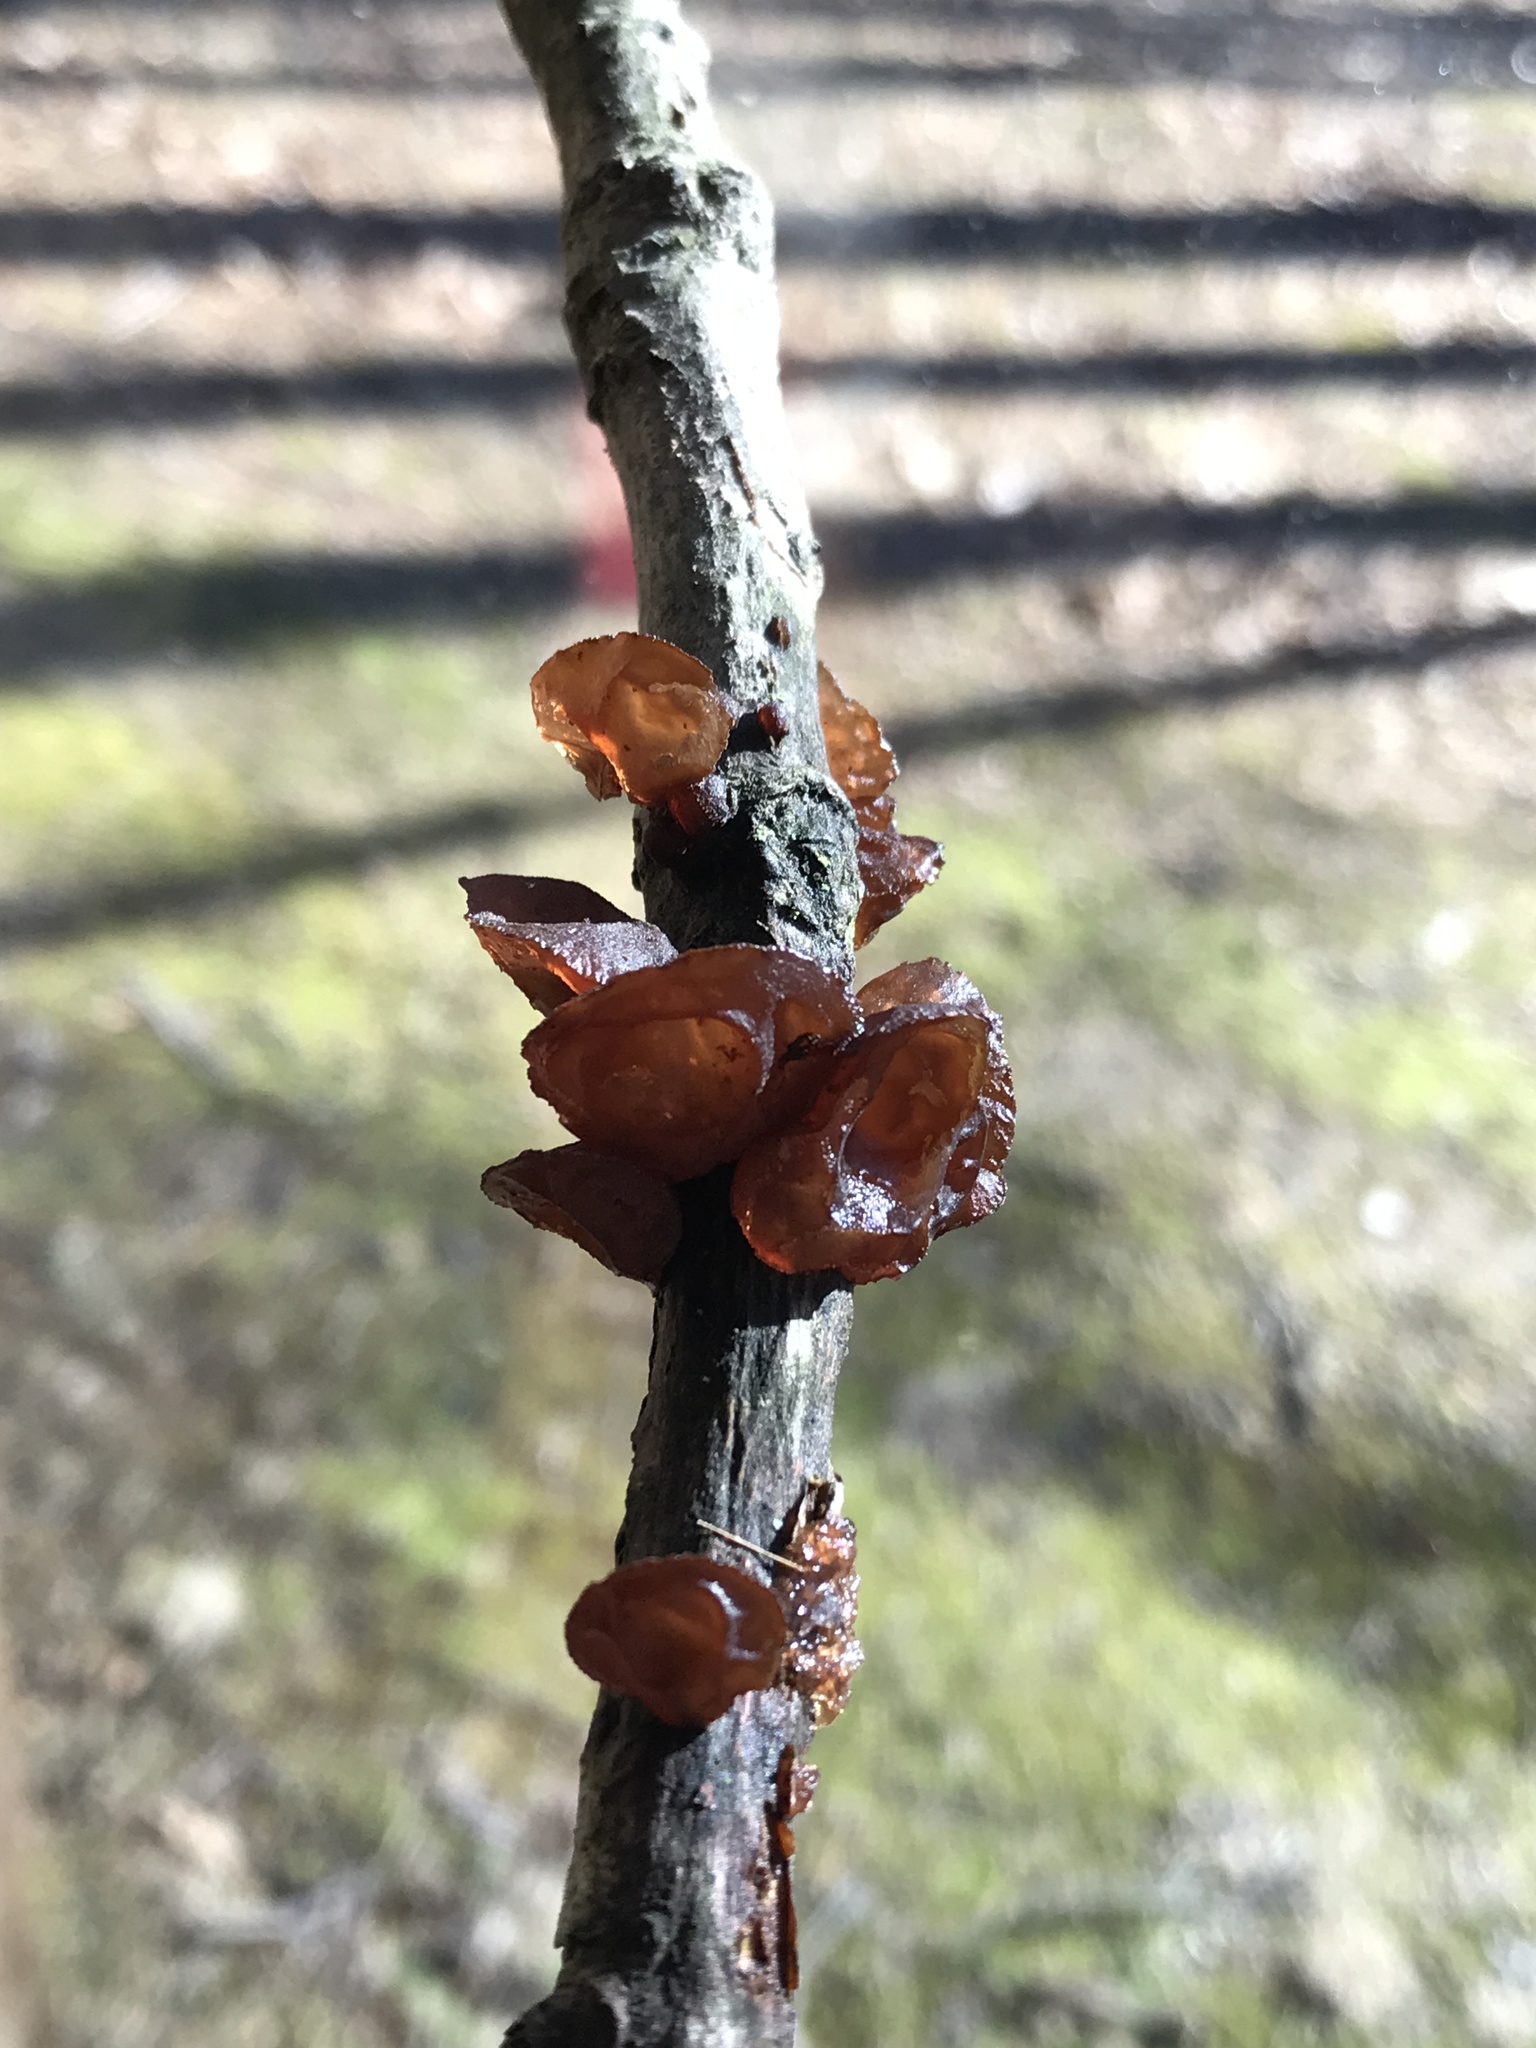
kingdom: Fungi
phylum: Basidiomycota
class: Agaricomycetes
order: Auriculariales
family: Auriculariaceae
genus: Exidia
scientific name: Exidia
